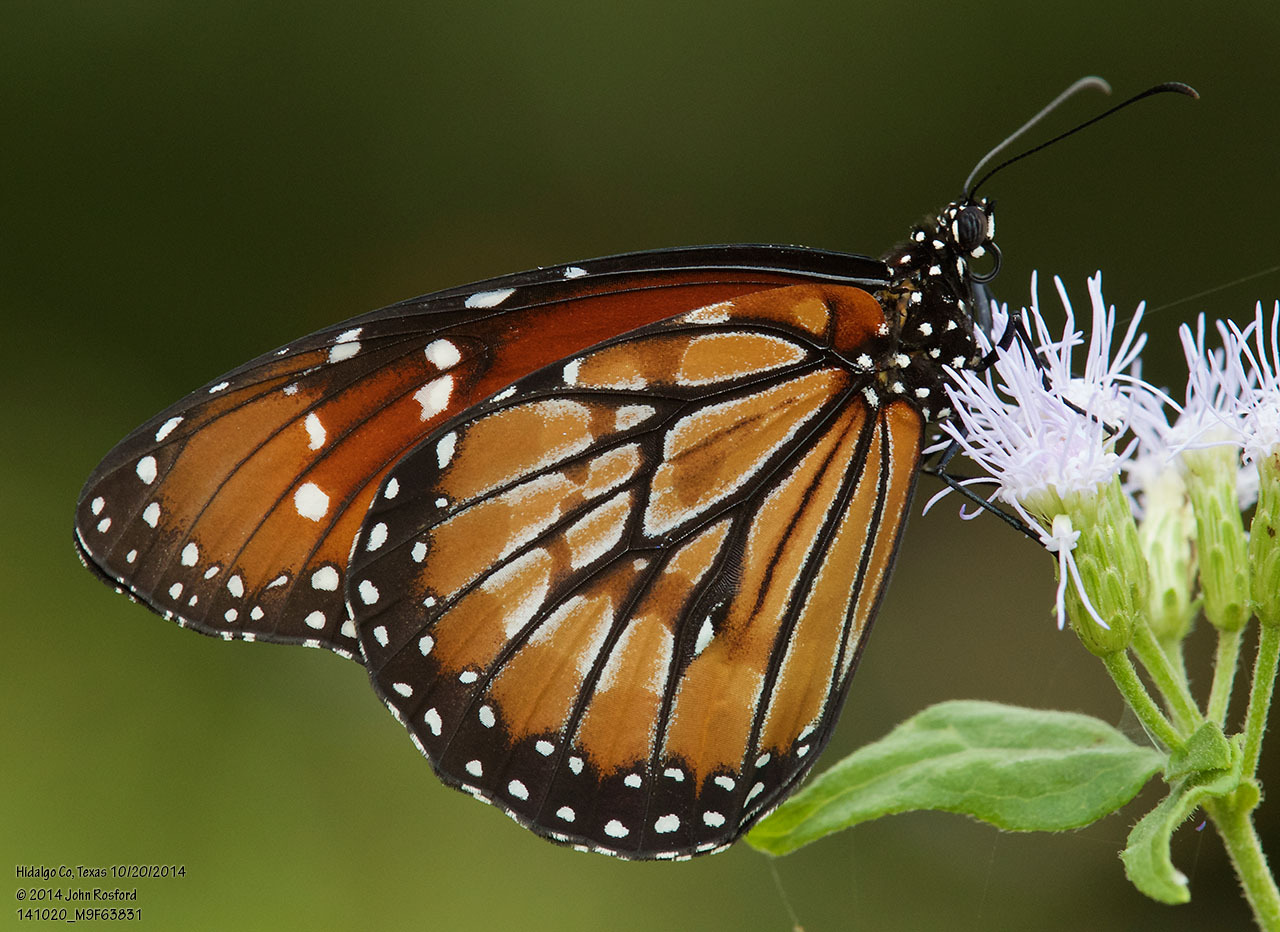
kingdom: Animalia
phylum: Arthropoda
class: Insecta
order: Lepidoptera
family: Nymphalidae
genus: Danaus
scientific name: Danaus eresimus
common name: Soldier
